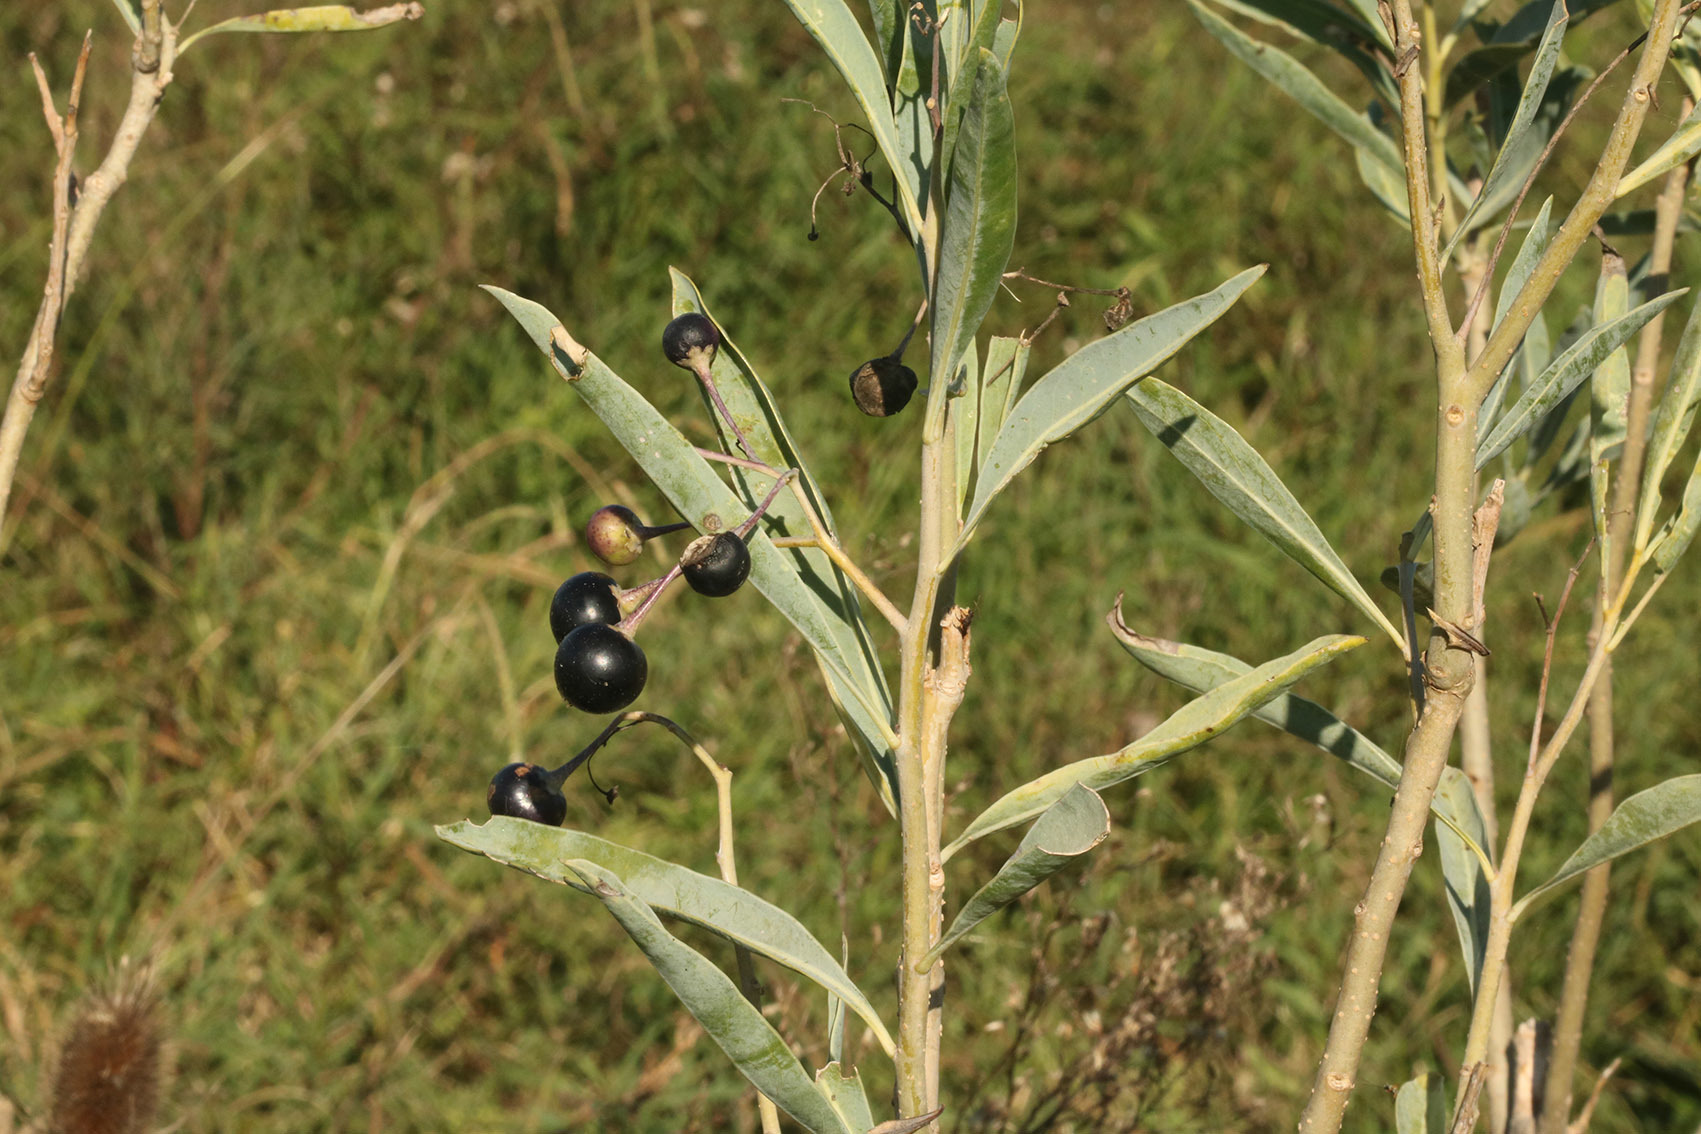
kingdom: Plantae
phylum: Tracheophyta
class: Magnoliopsida
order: Solanales
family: Solanaceae
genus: Solanum
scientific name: Solanum glaucophyllum
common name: Waxyleaf nightshade
